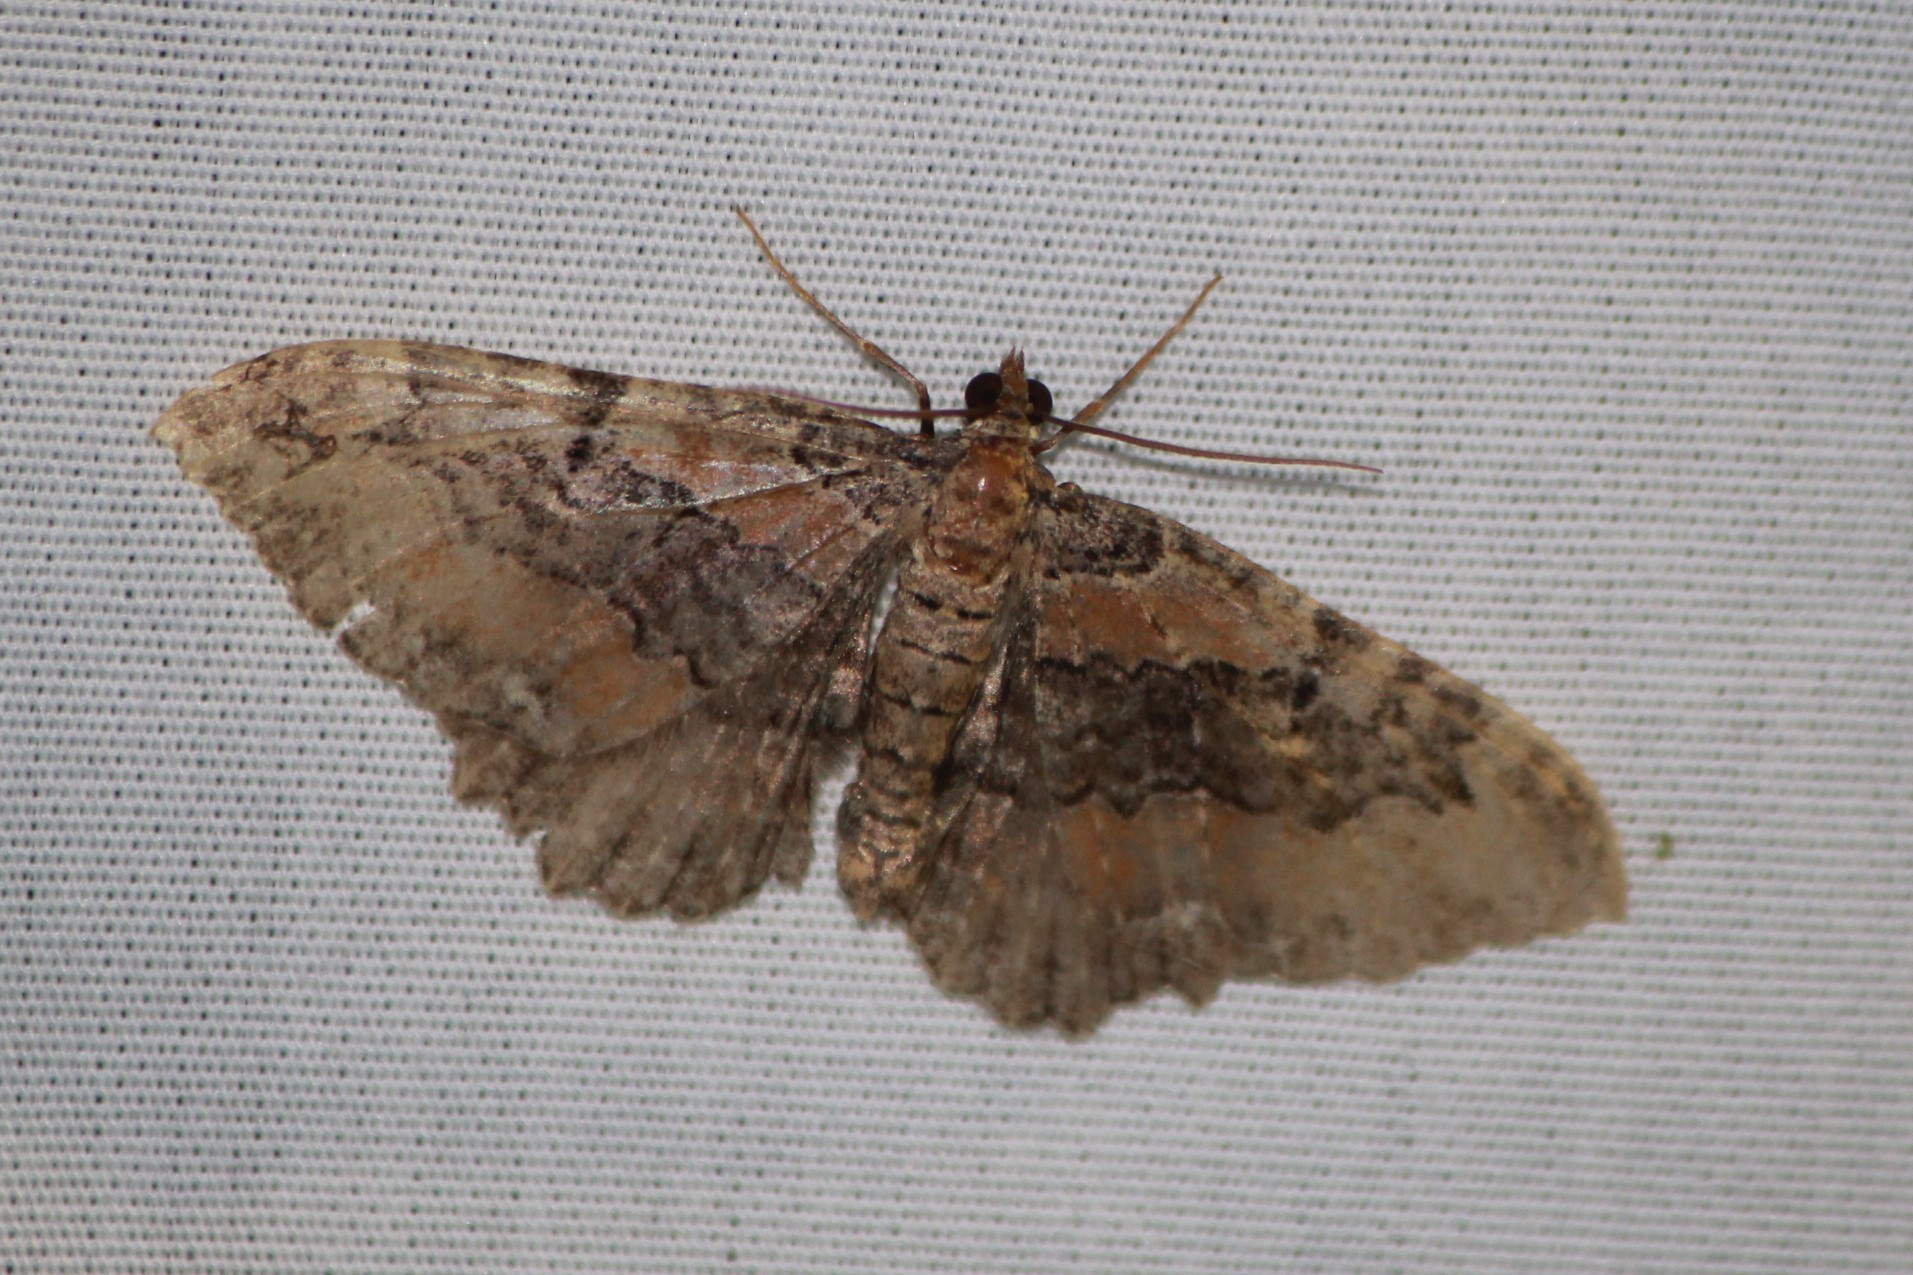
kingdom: Animalia
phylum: Arthropoda
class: Insecta
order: Lepidoptera
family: Geometridae
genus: Rheumaptera
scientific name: Rheumaptera
